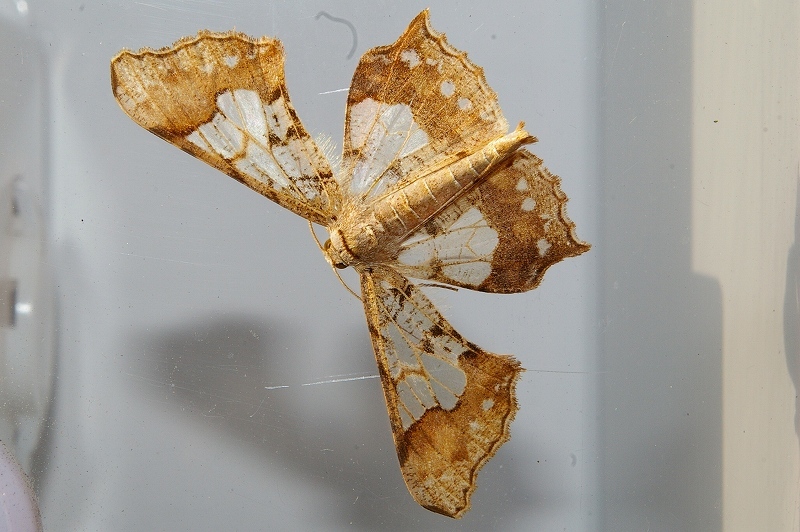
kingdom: Animalia
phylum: Arthropoda
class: Insecta
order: Lepidoptera
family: Geometridae
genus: Krananda
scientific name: Krananda semihyalina
